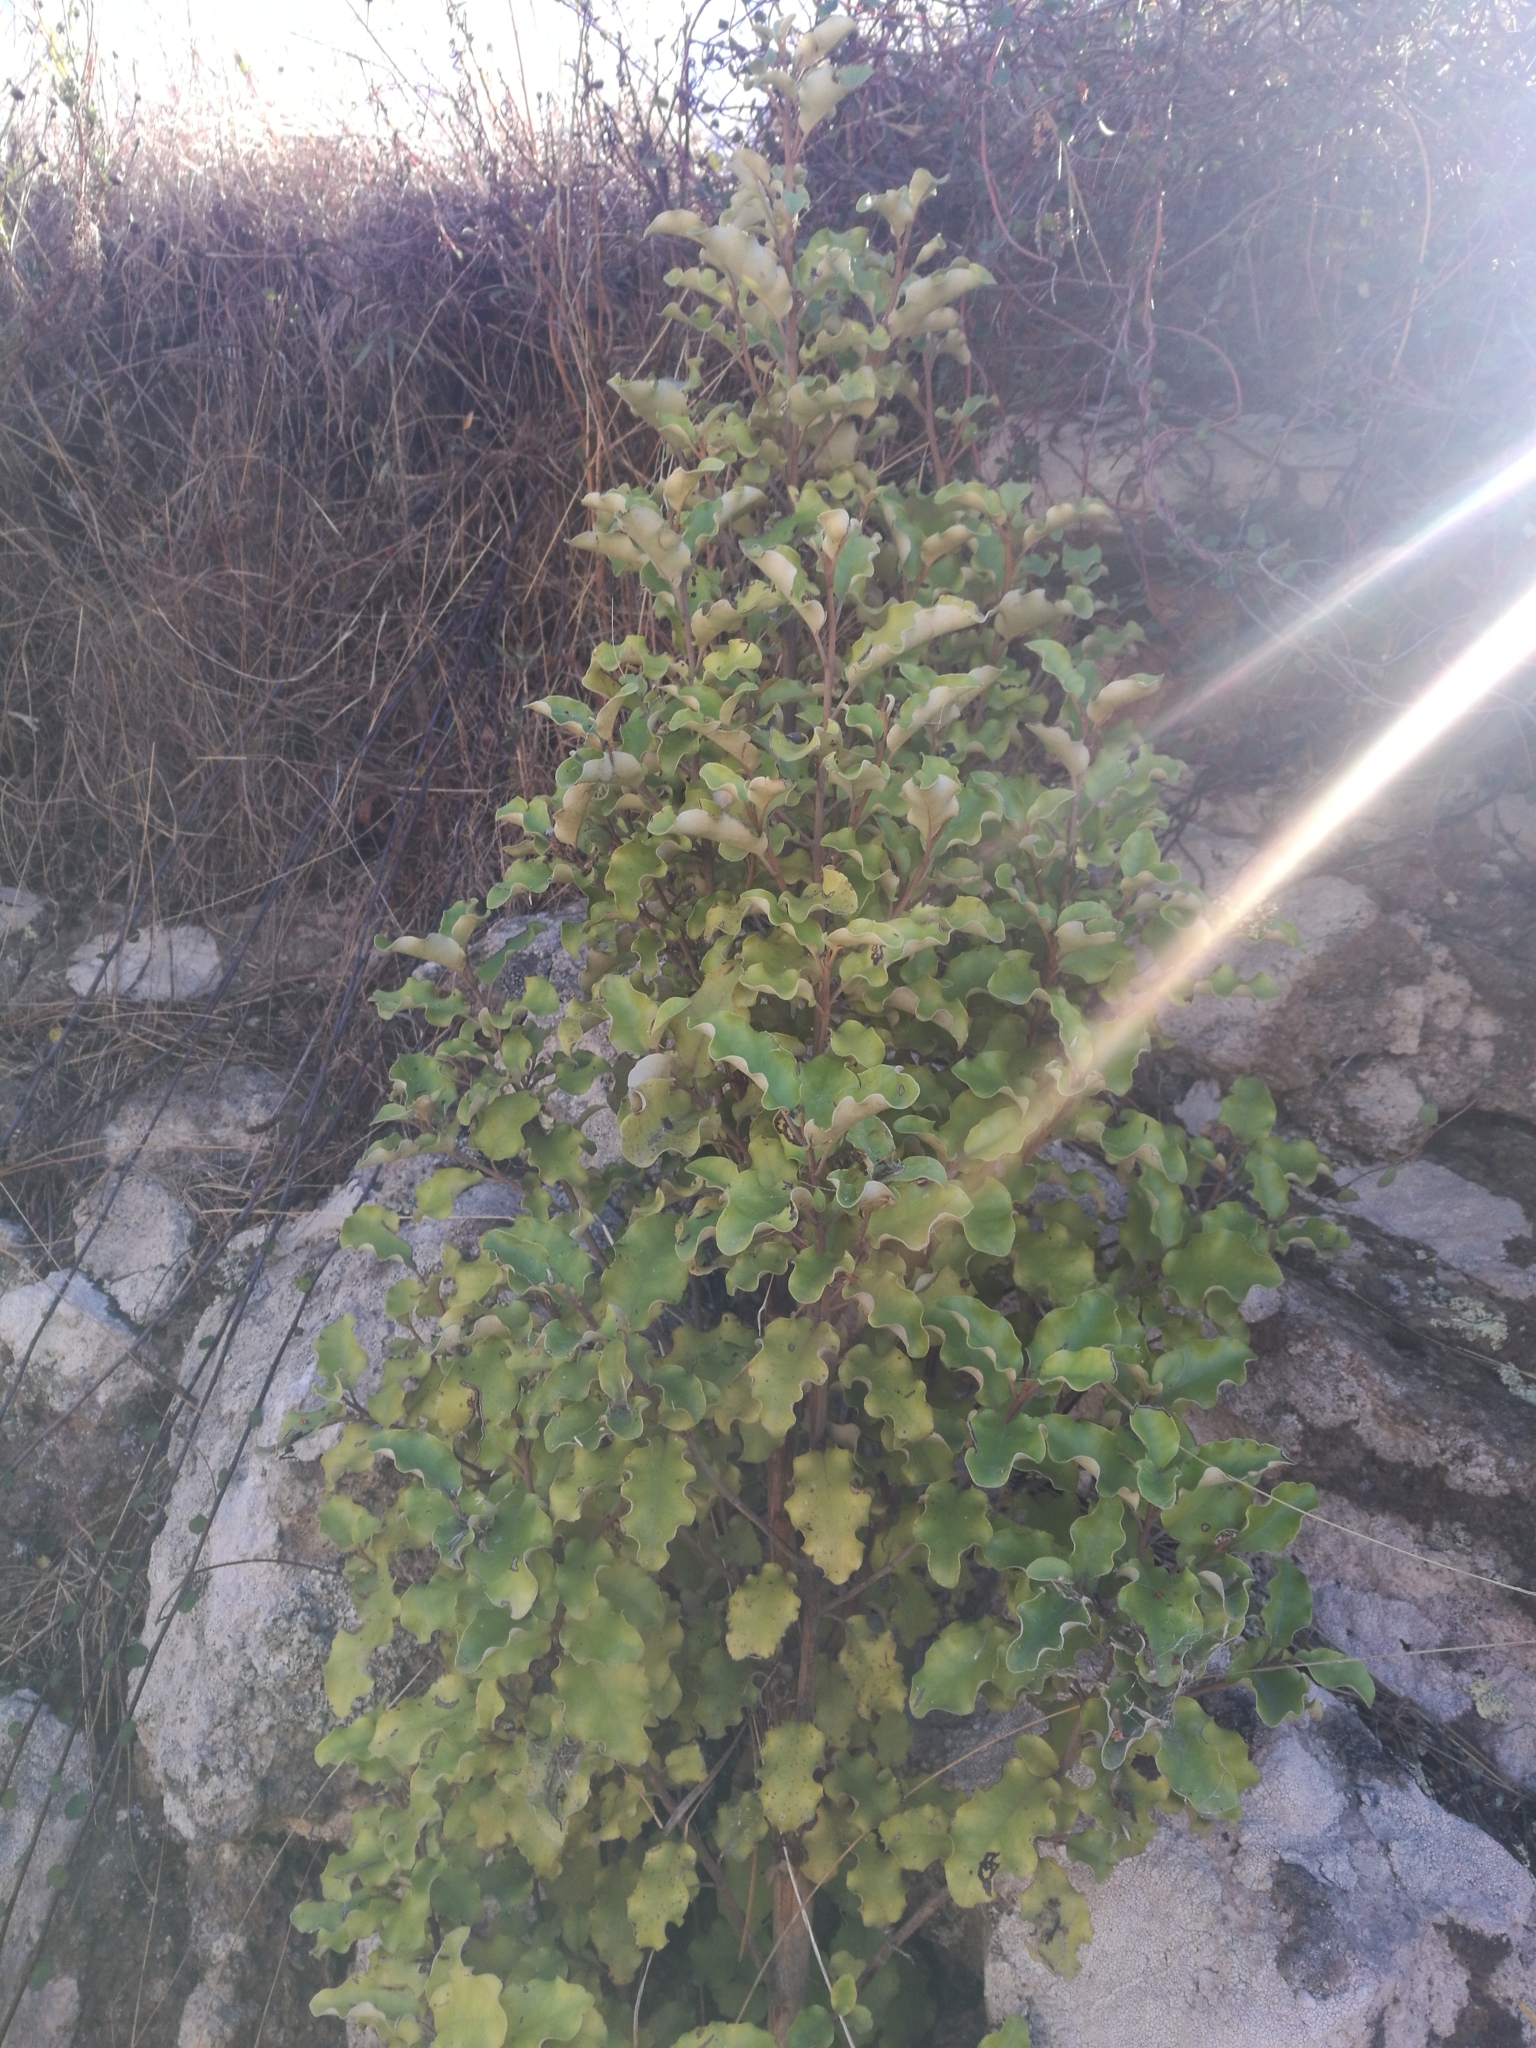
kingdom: Plantae
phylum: Tracheophyta
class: Magnoliopsida
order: Asterales
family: Asteraceae
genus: Olearia
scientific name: Olearia paniculata
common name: Akiraho
